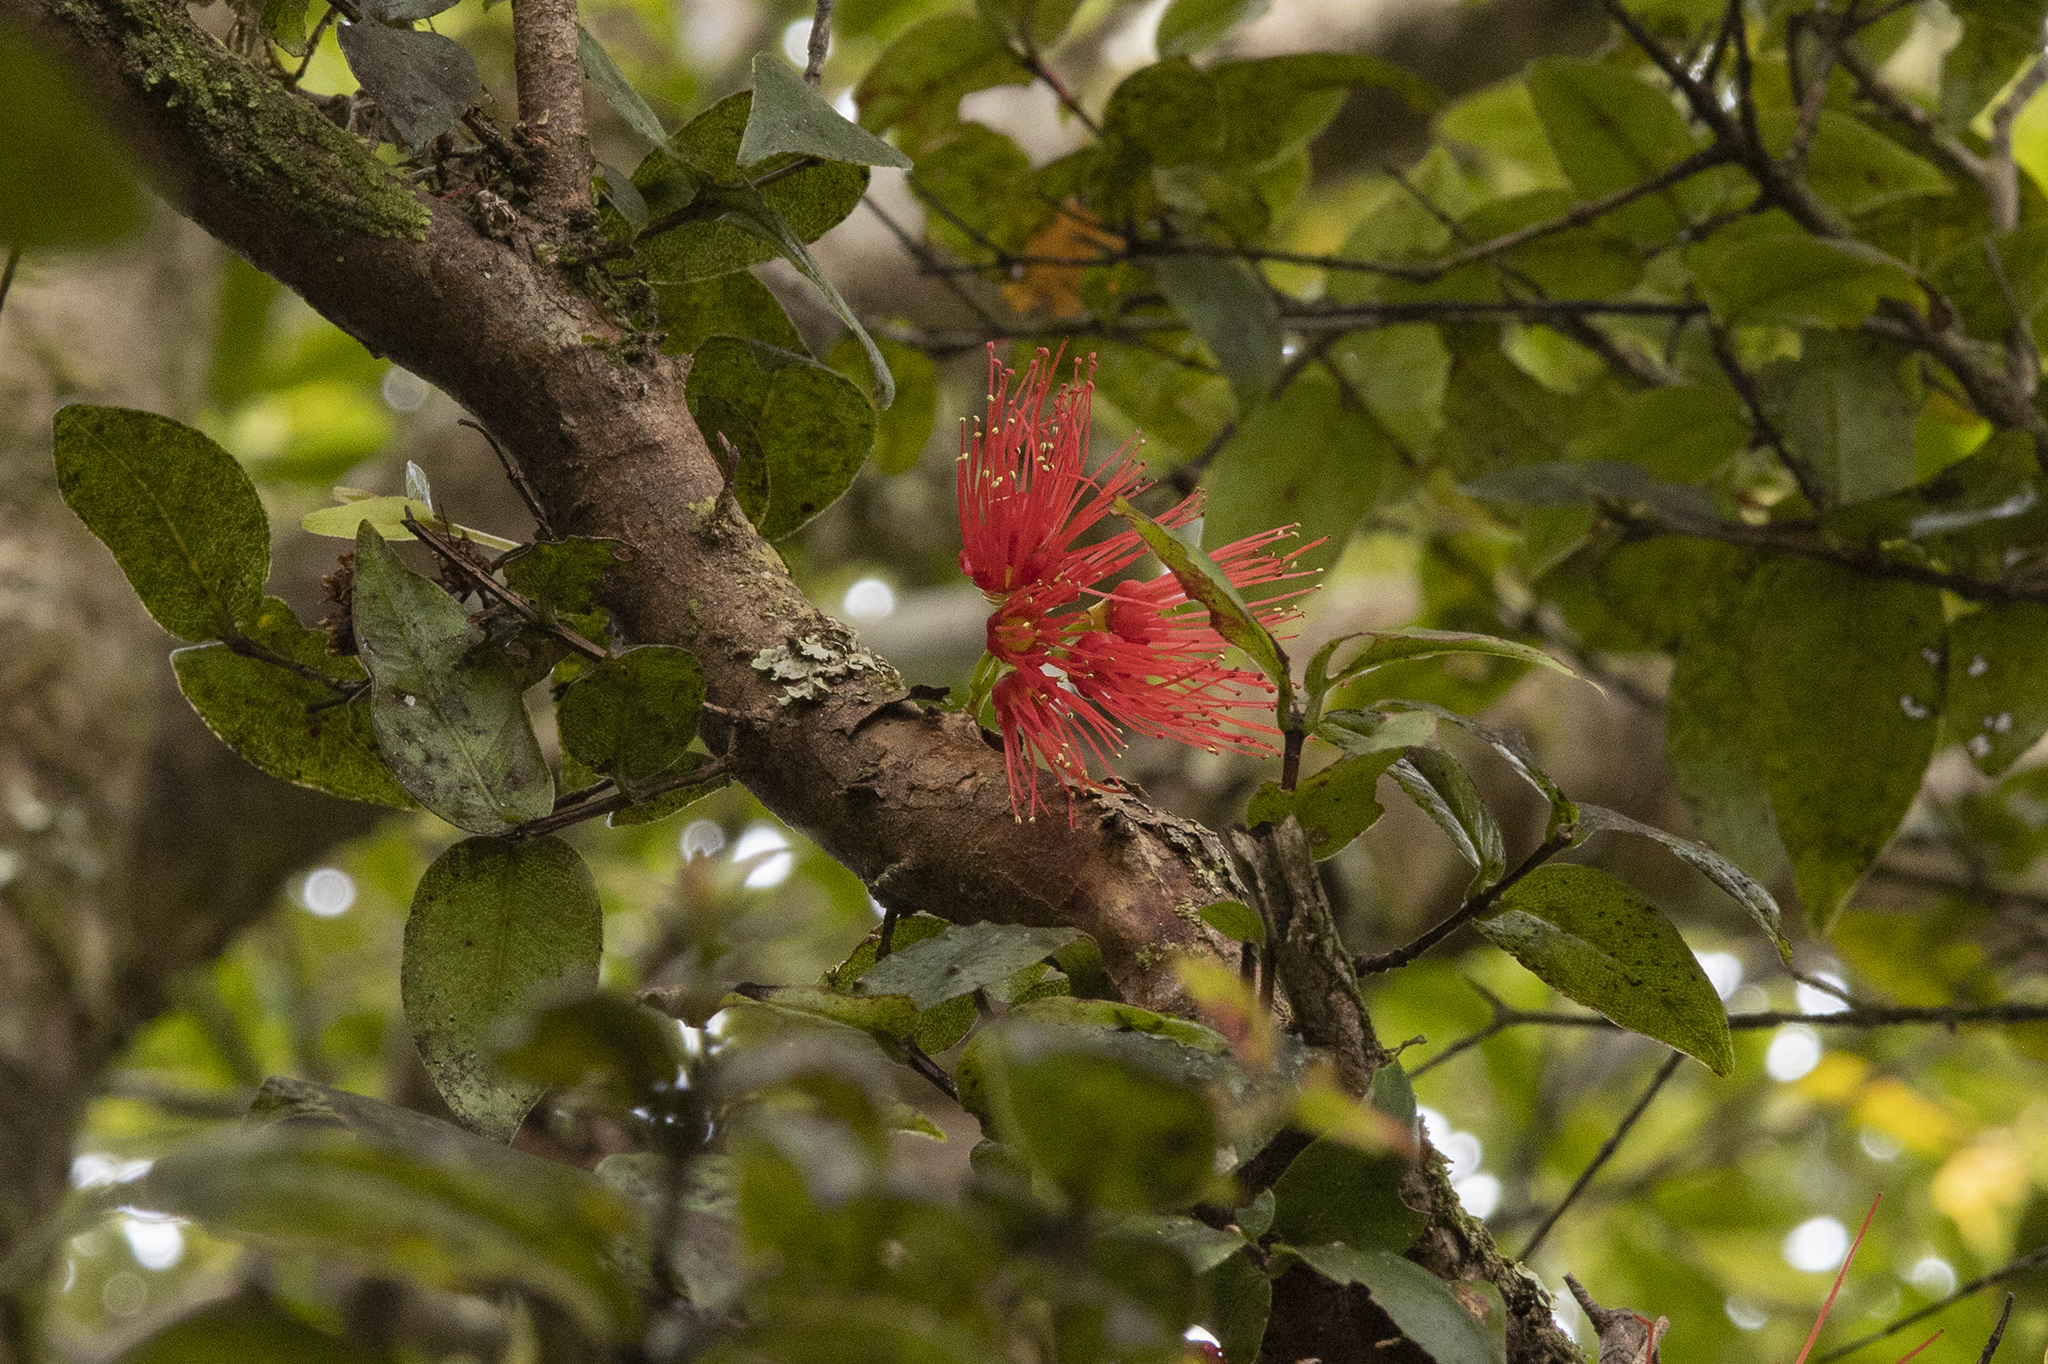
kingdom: Plantae
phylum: Tracheophyta
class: Magnoliopsida
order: Myrtales
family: Myrtaceae
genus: Metrosideros
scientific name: Metrosideros parkinsonii
